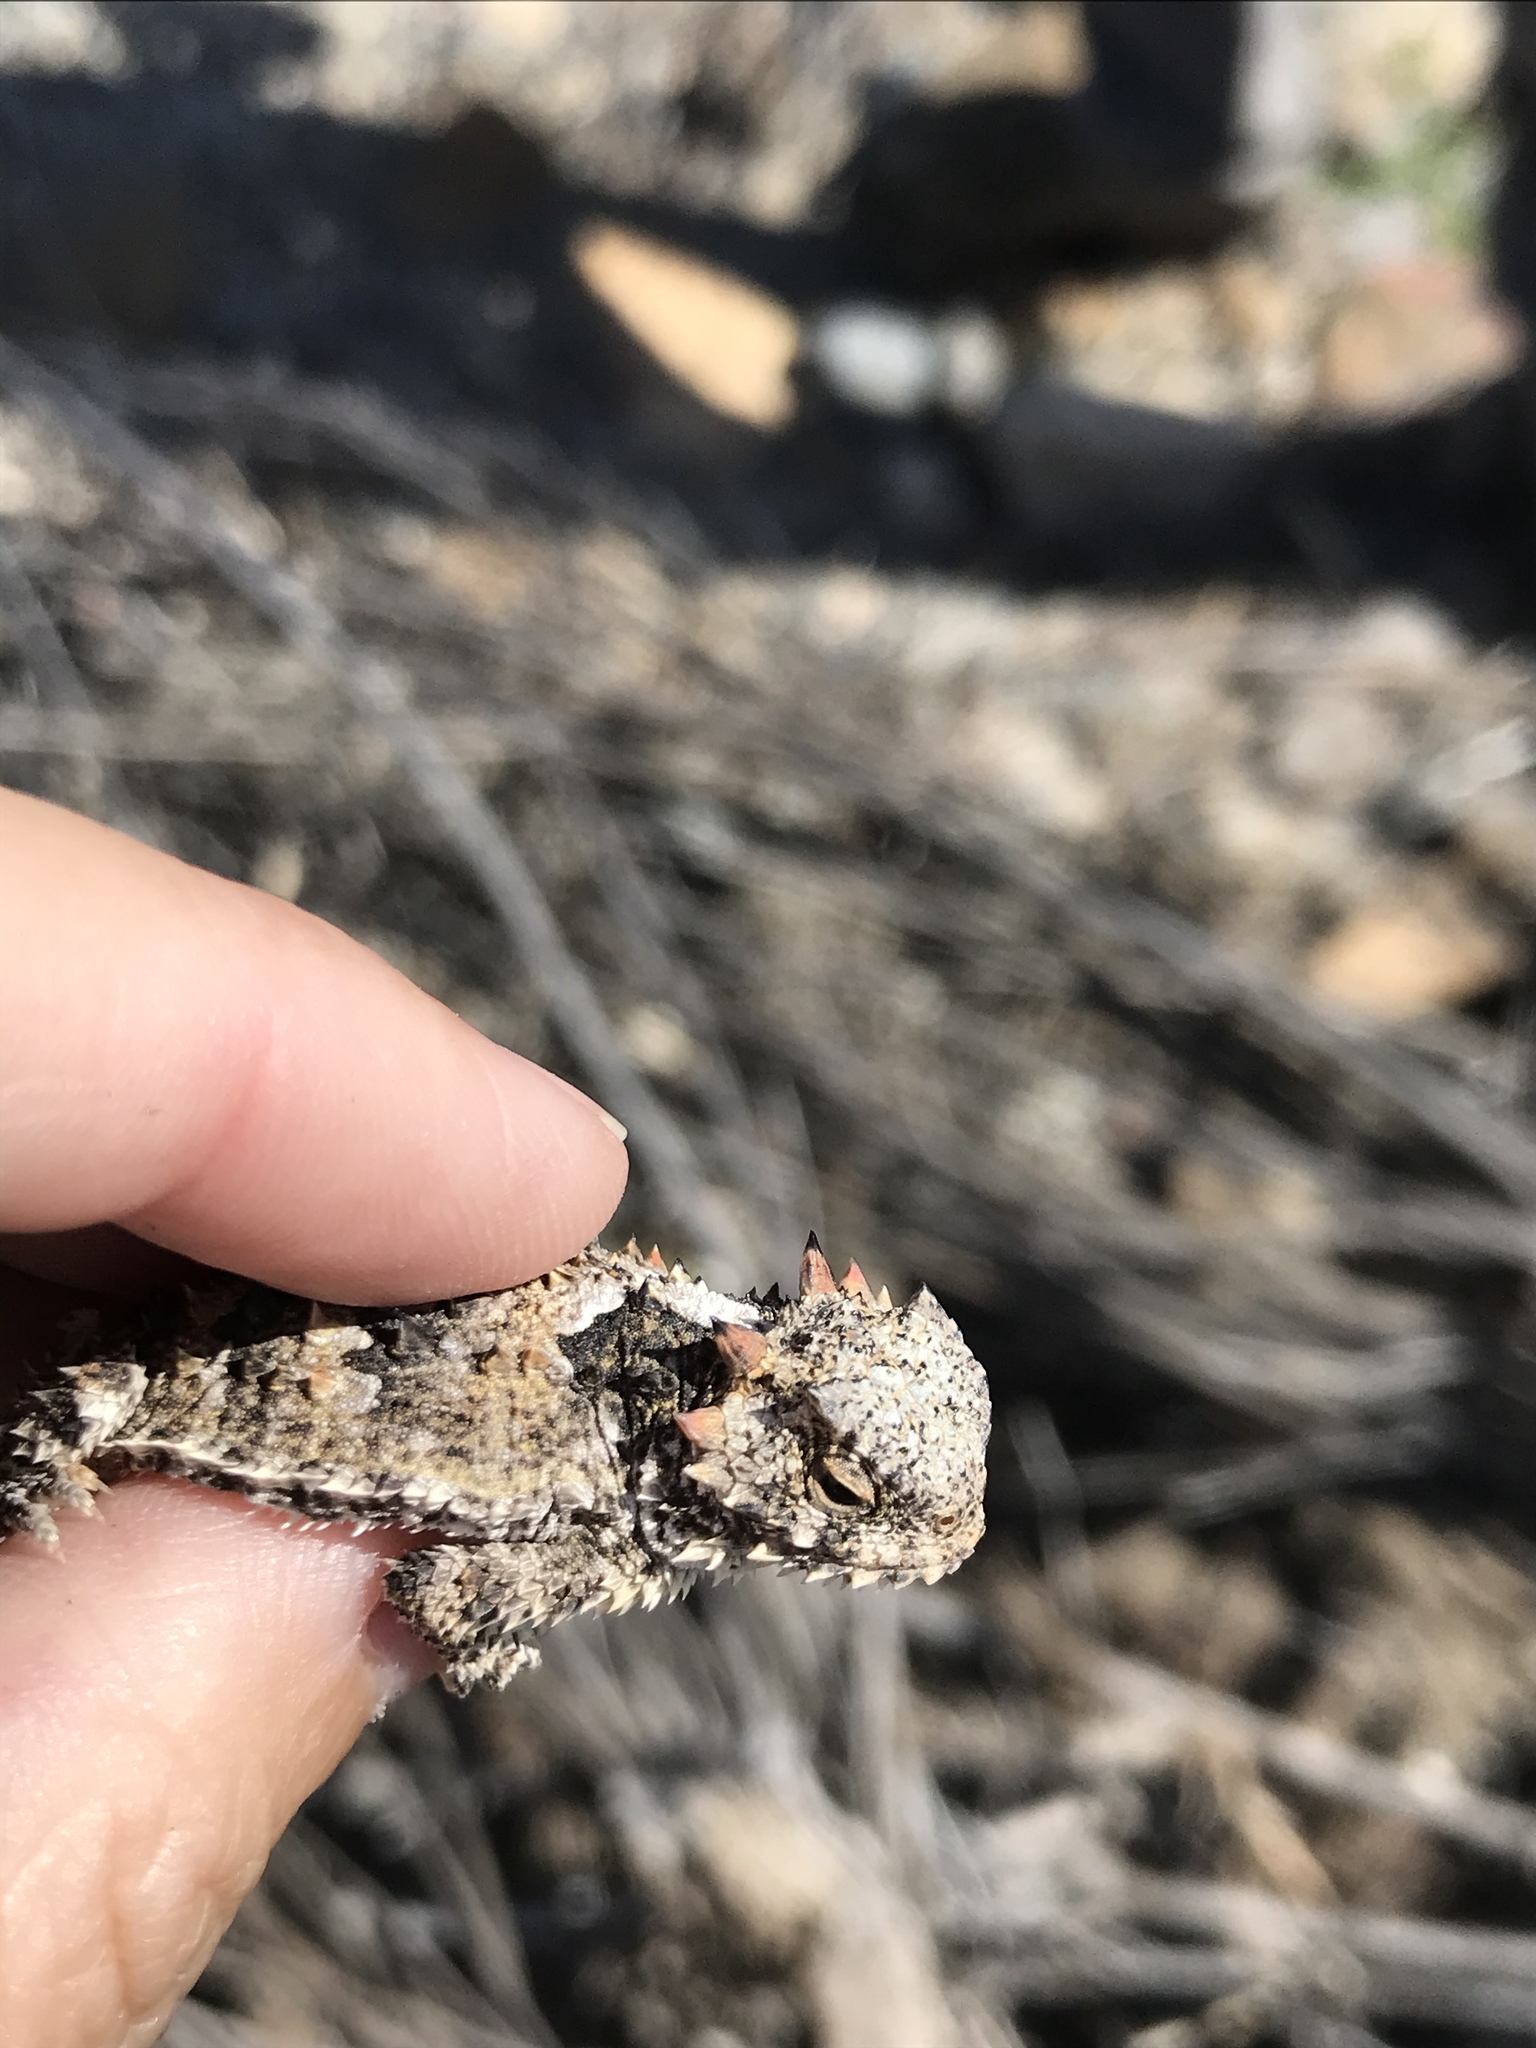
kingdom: Animalia
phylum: Chordata
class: Squamata
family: Phrynosomatidae
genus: Phrynosoma
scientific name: Phrynosoma blainvillii
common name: San diego horned lizard
